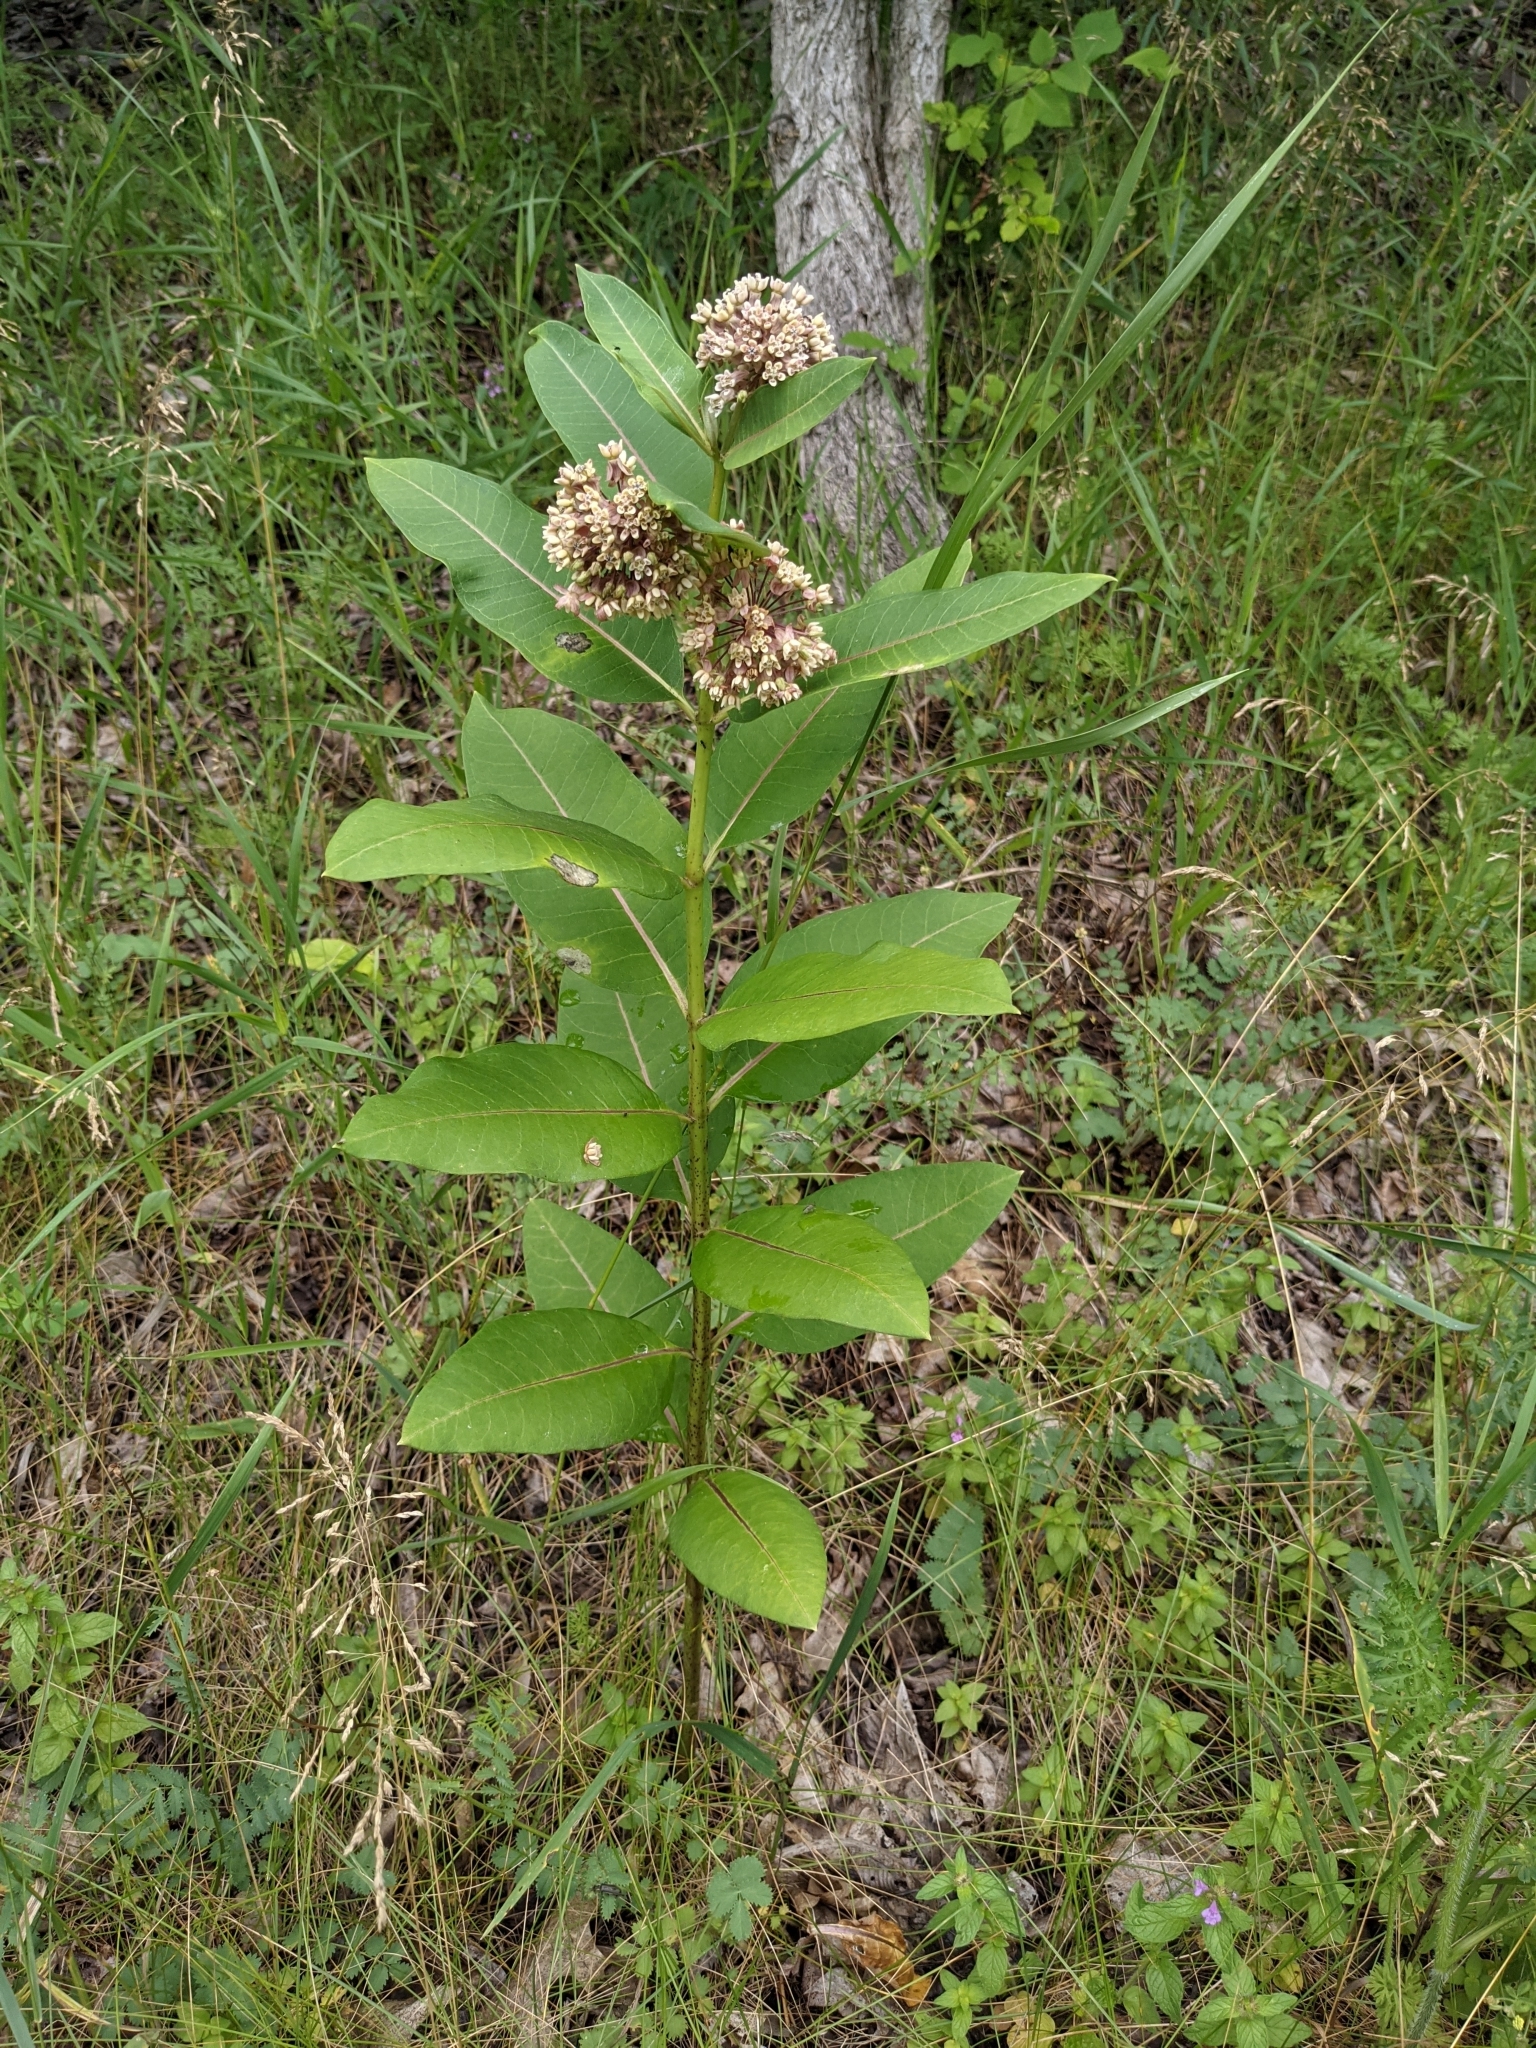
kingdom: Plantae
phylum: Tracheophyta
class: Magnoliopsida
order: Gentianales
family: Apocynaceae
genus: Asclepias
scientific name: Asclepias syriaca
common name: Common milkweed
